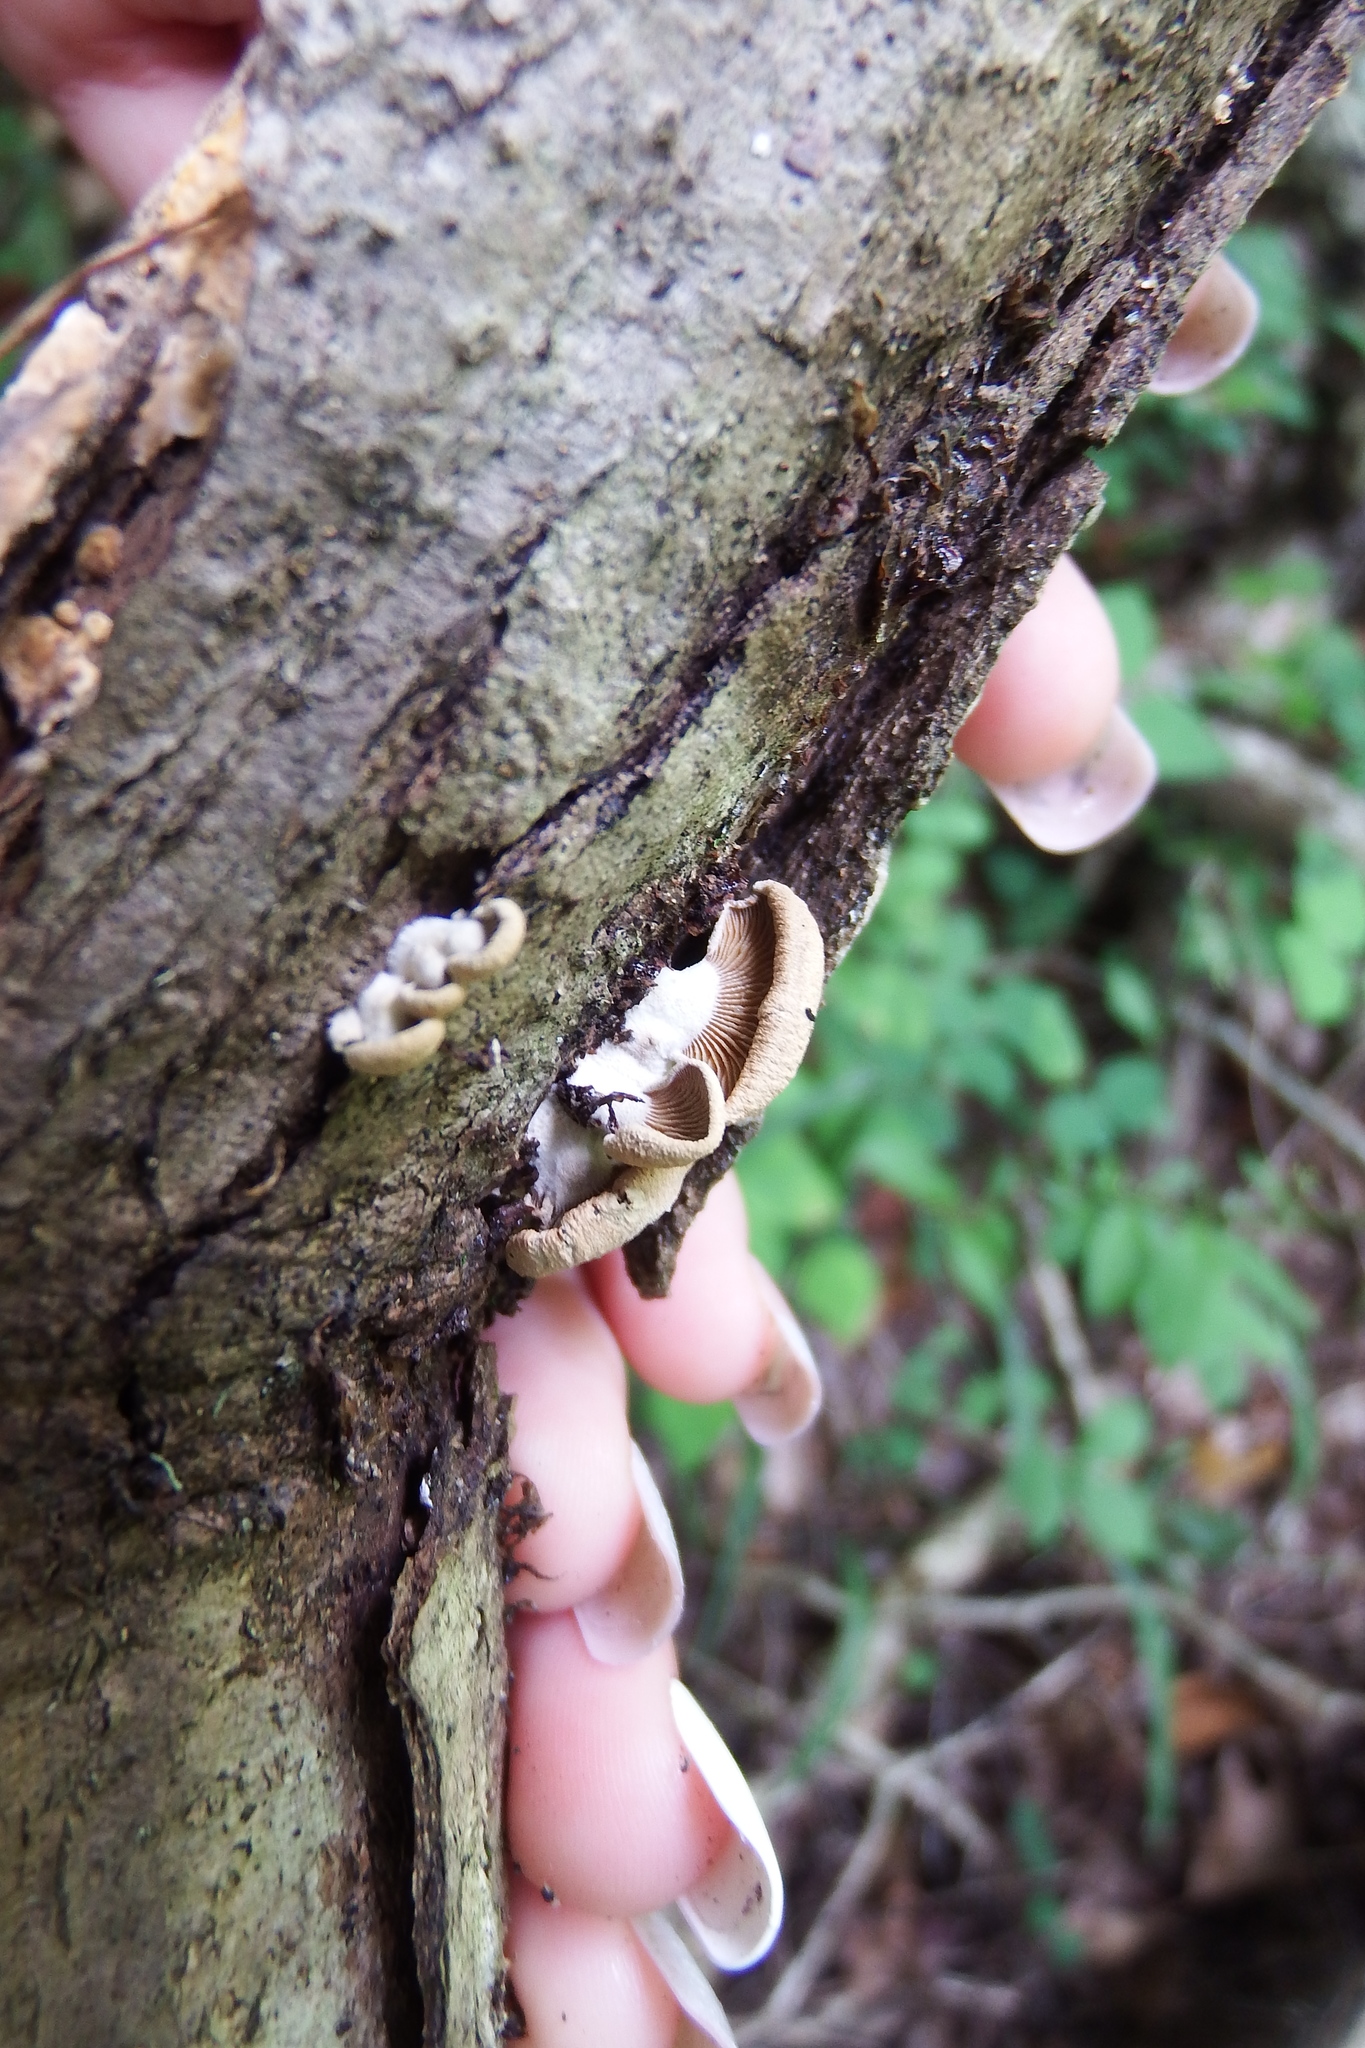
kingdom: Fungi
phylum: Basidiomycota
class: Agaricomycetes
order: Agaricales
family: Mycenaceae
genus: Panellus
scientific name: Panellus stipticus
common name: Bitter oysterling
